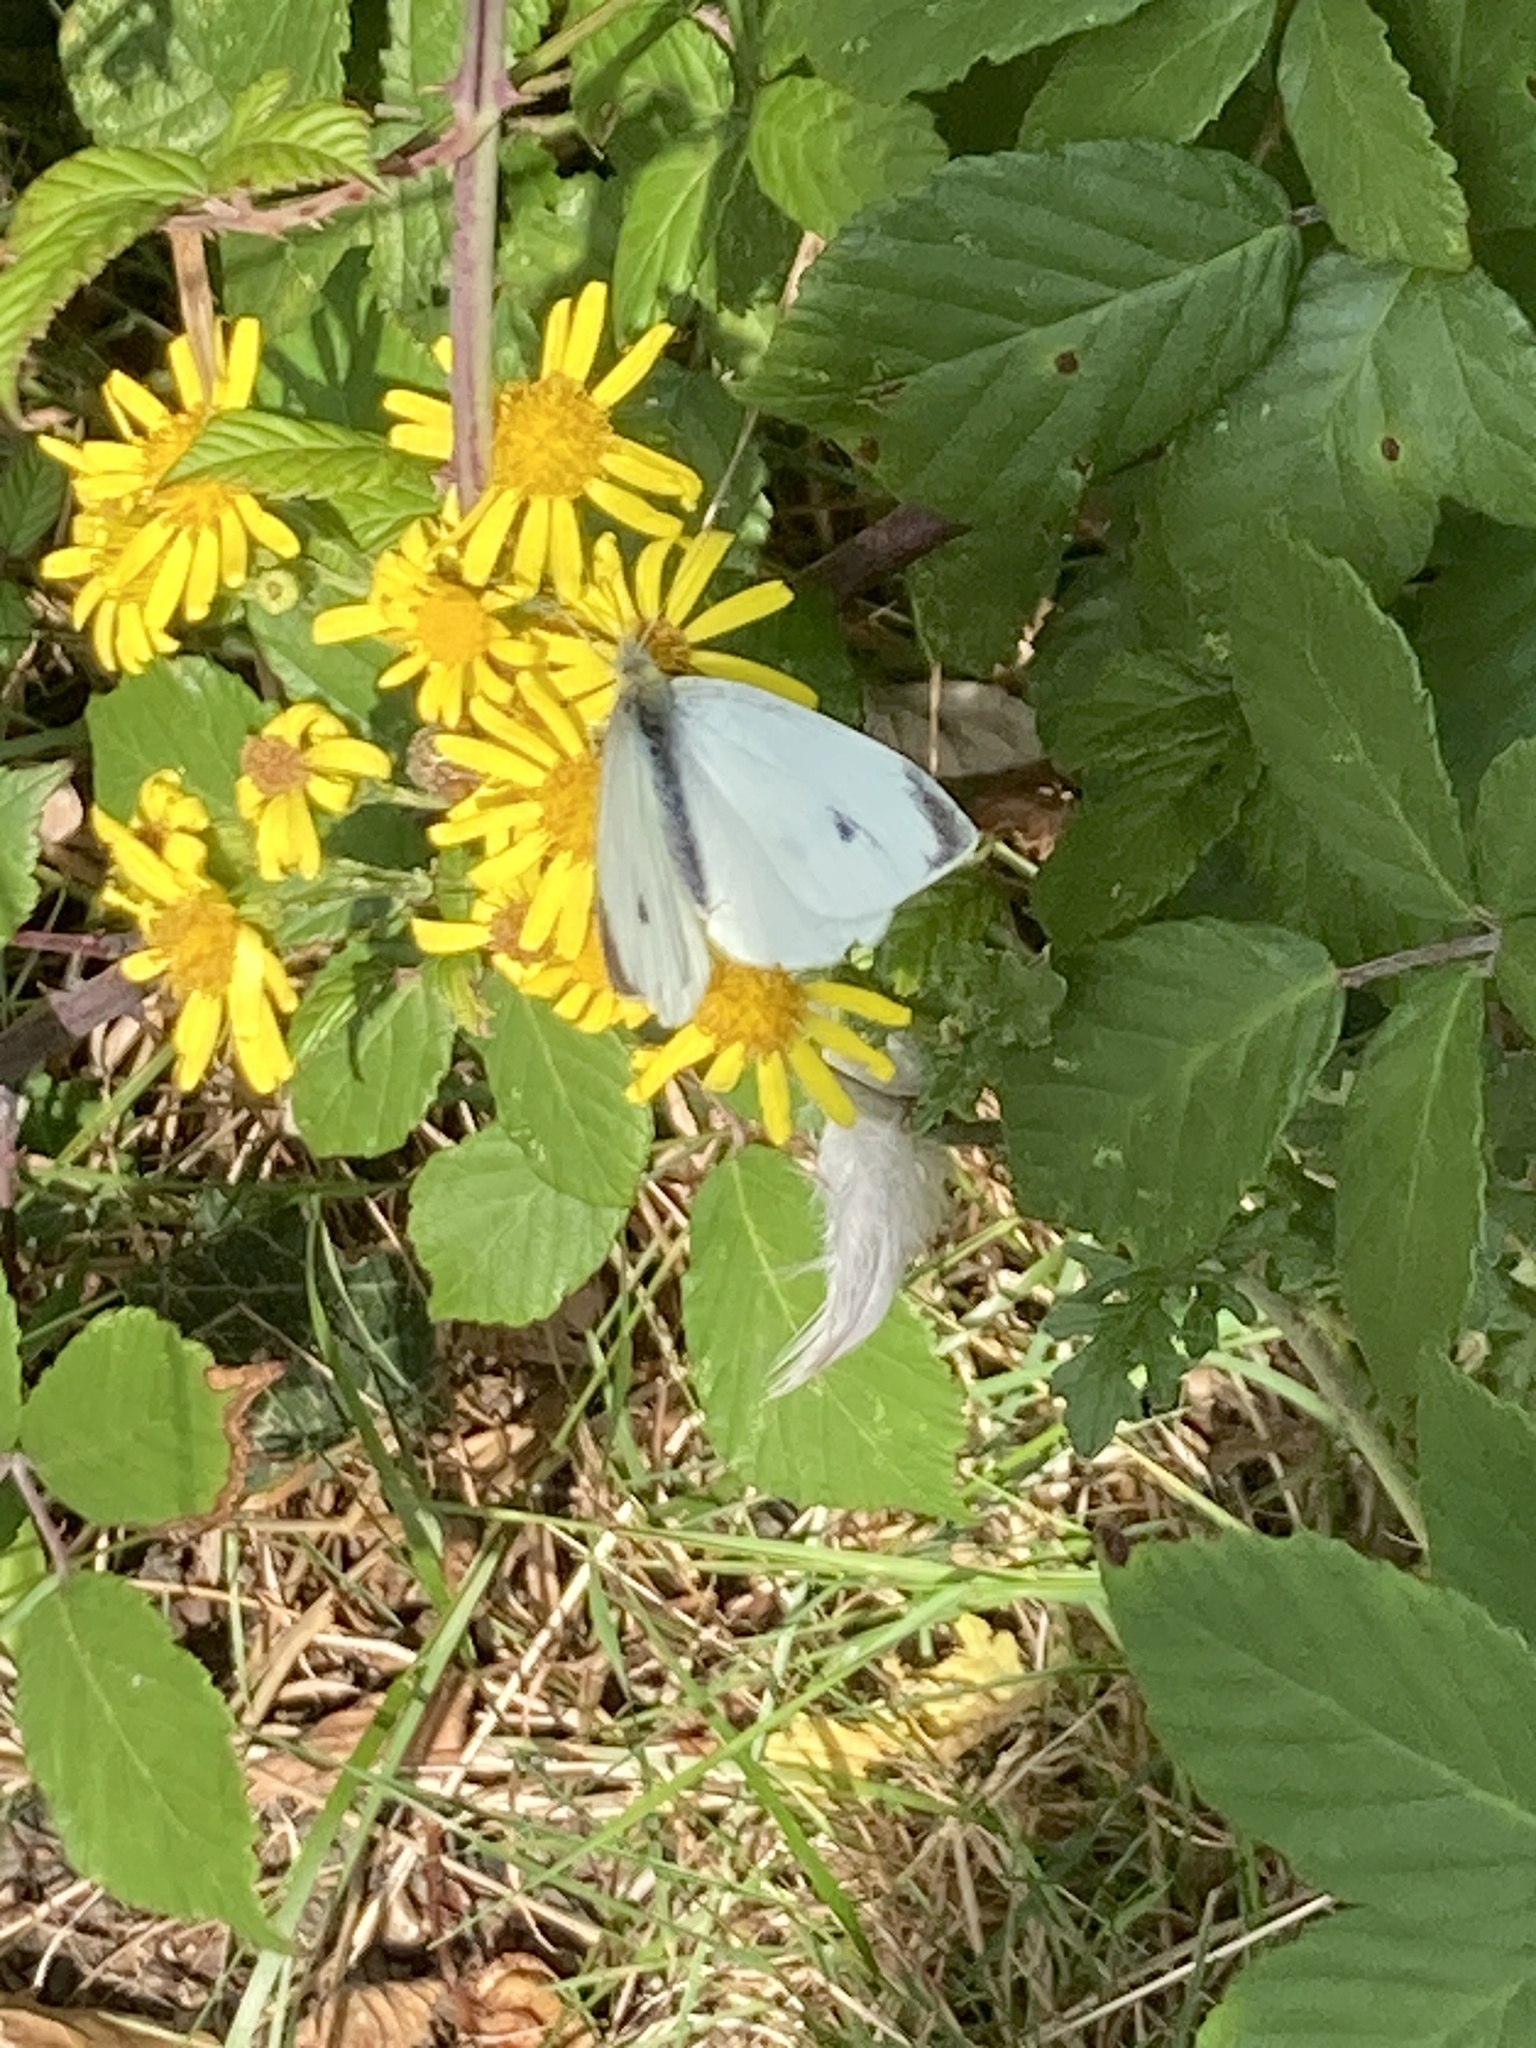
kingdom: Animalia
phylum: Arthropoda
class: Insecta
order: Lepidoptera
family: Pieridae
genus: Pieris
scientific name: Pieris rapae
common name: Small white
